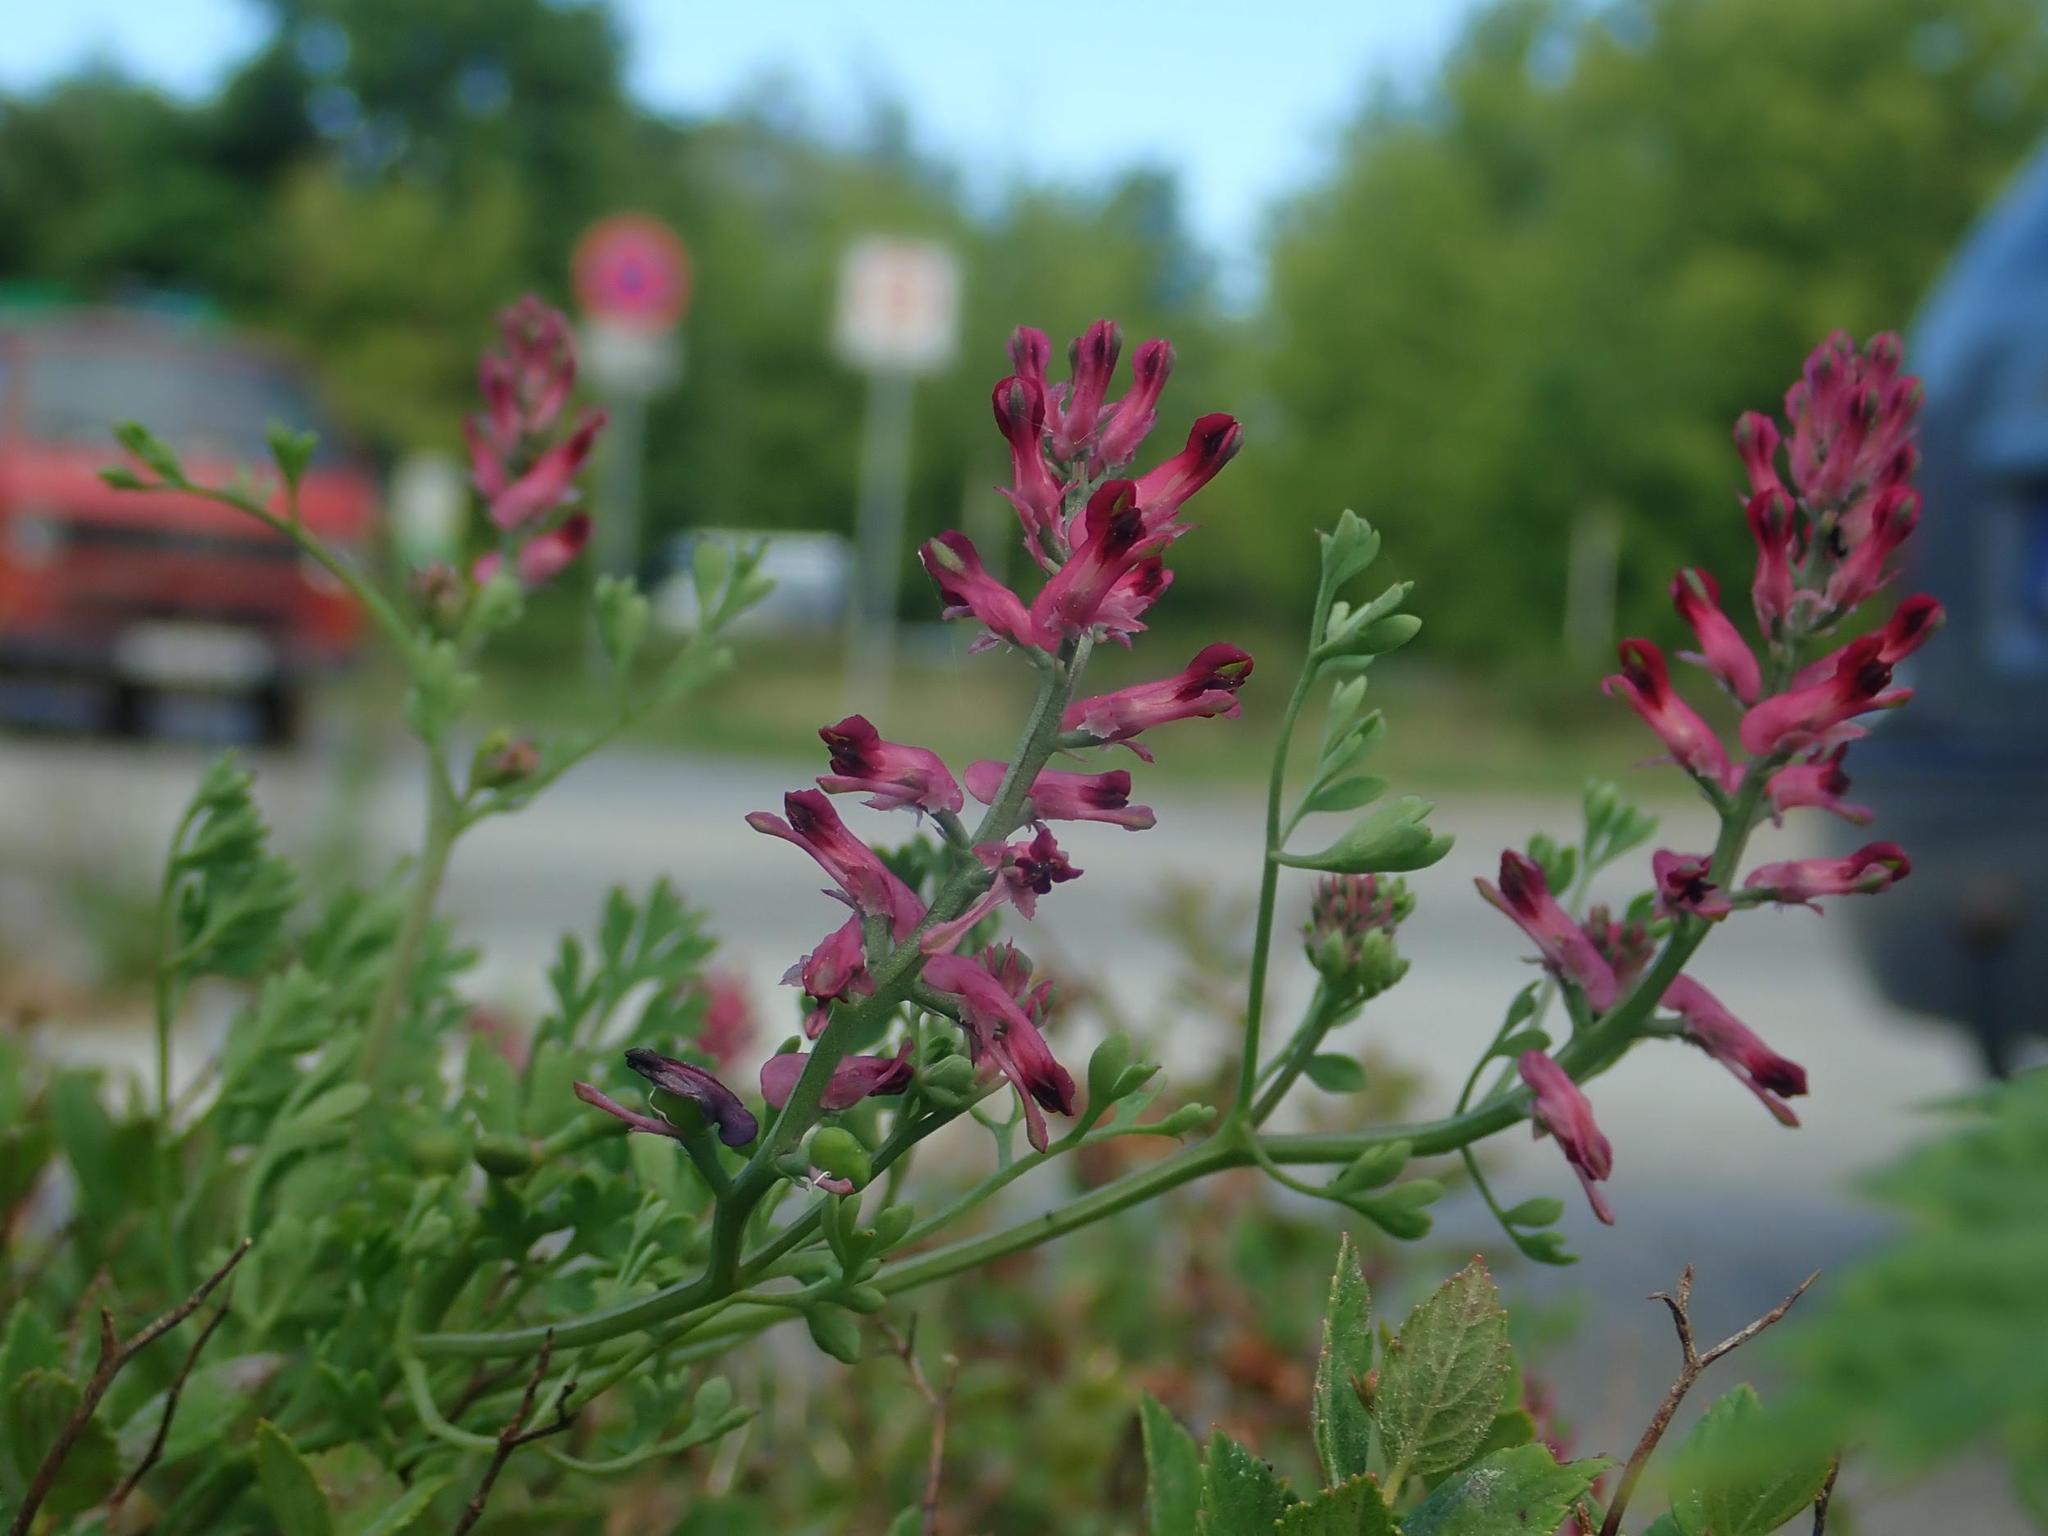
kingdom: Plantae
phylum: Tracheophyta
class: Magnoliopsida
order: Ranunculales
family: Papaveraceae
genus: Fumaria
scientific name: Fumaria officinalis
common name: Common fumitory
